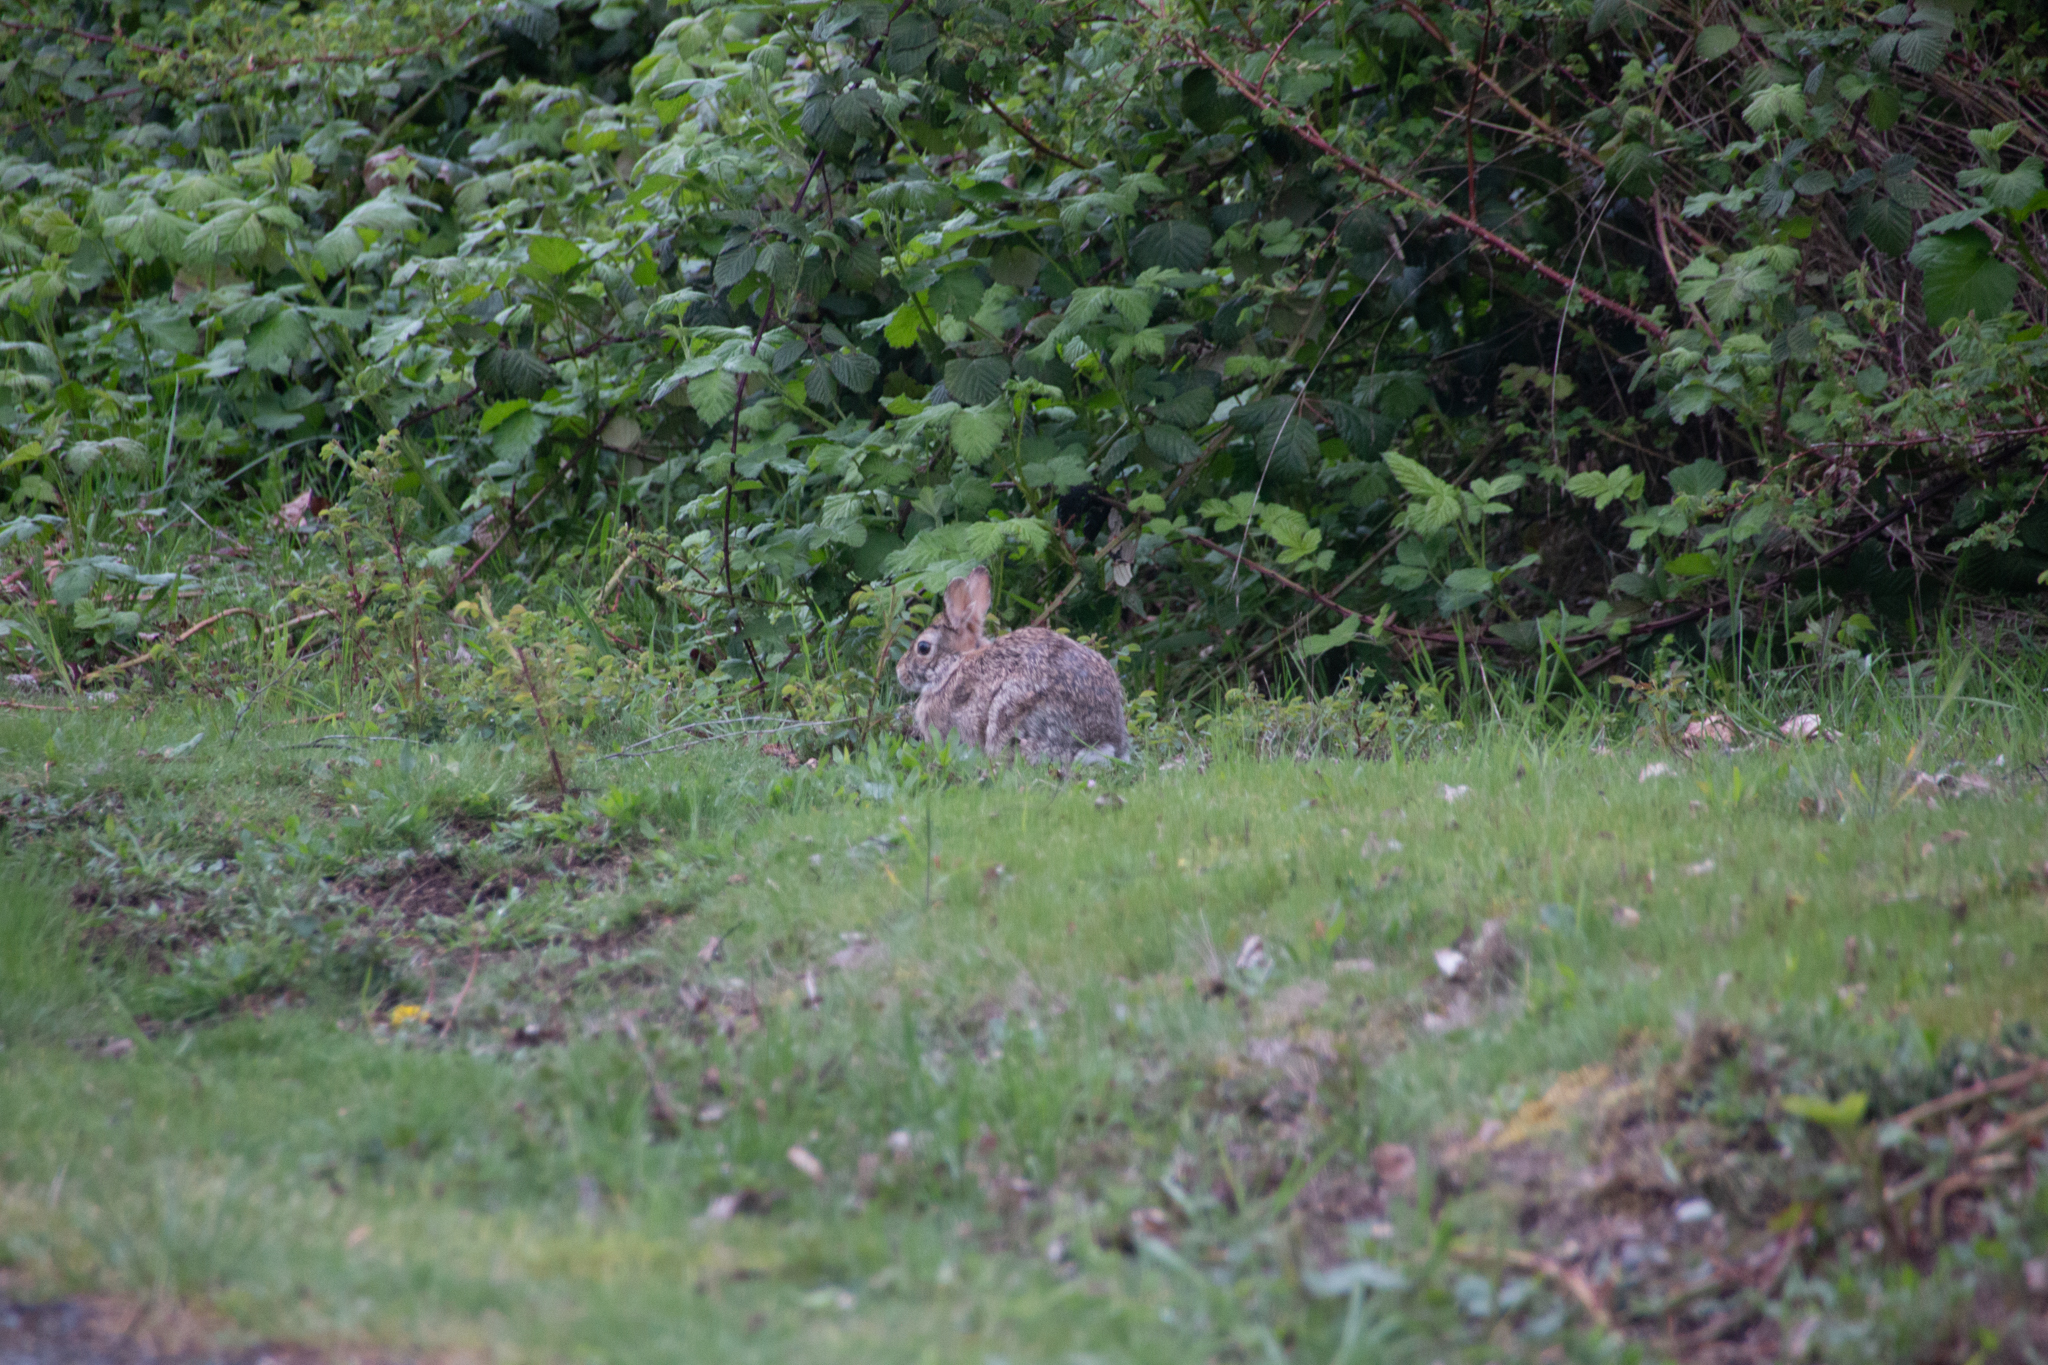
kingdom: Animalia
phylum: Chordata
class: Mammalia
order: Lagomorpha
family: Leporidae
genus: Sylvilagus
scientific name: Sylvilagus floridanus
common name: Eastern cottontail
